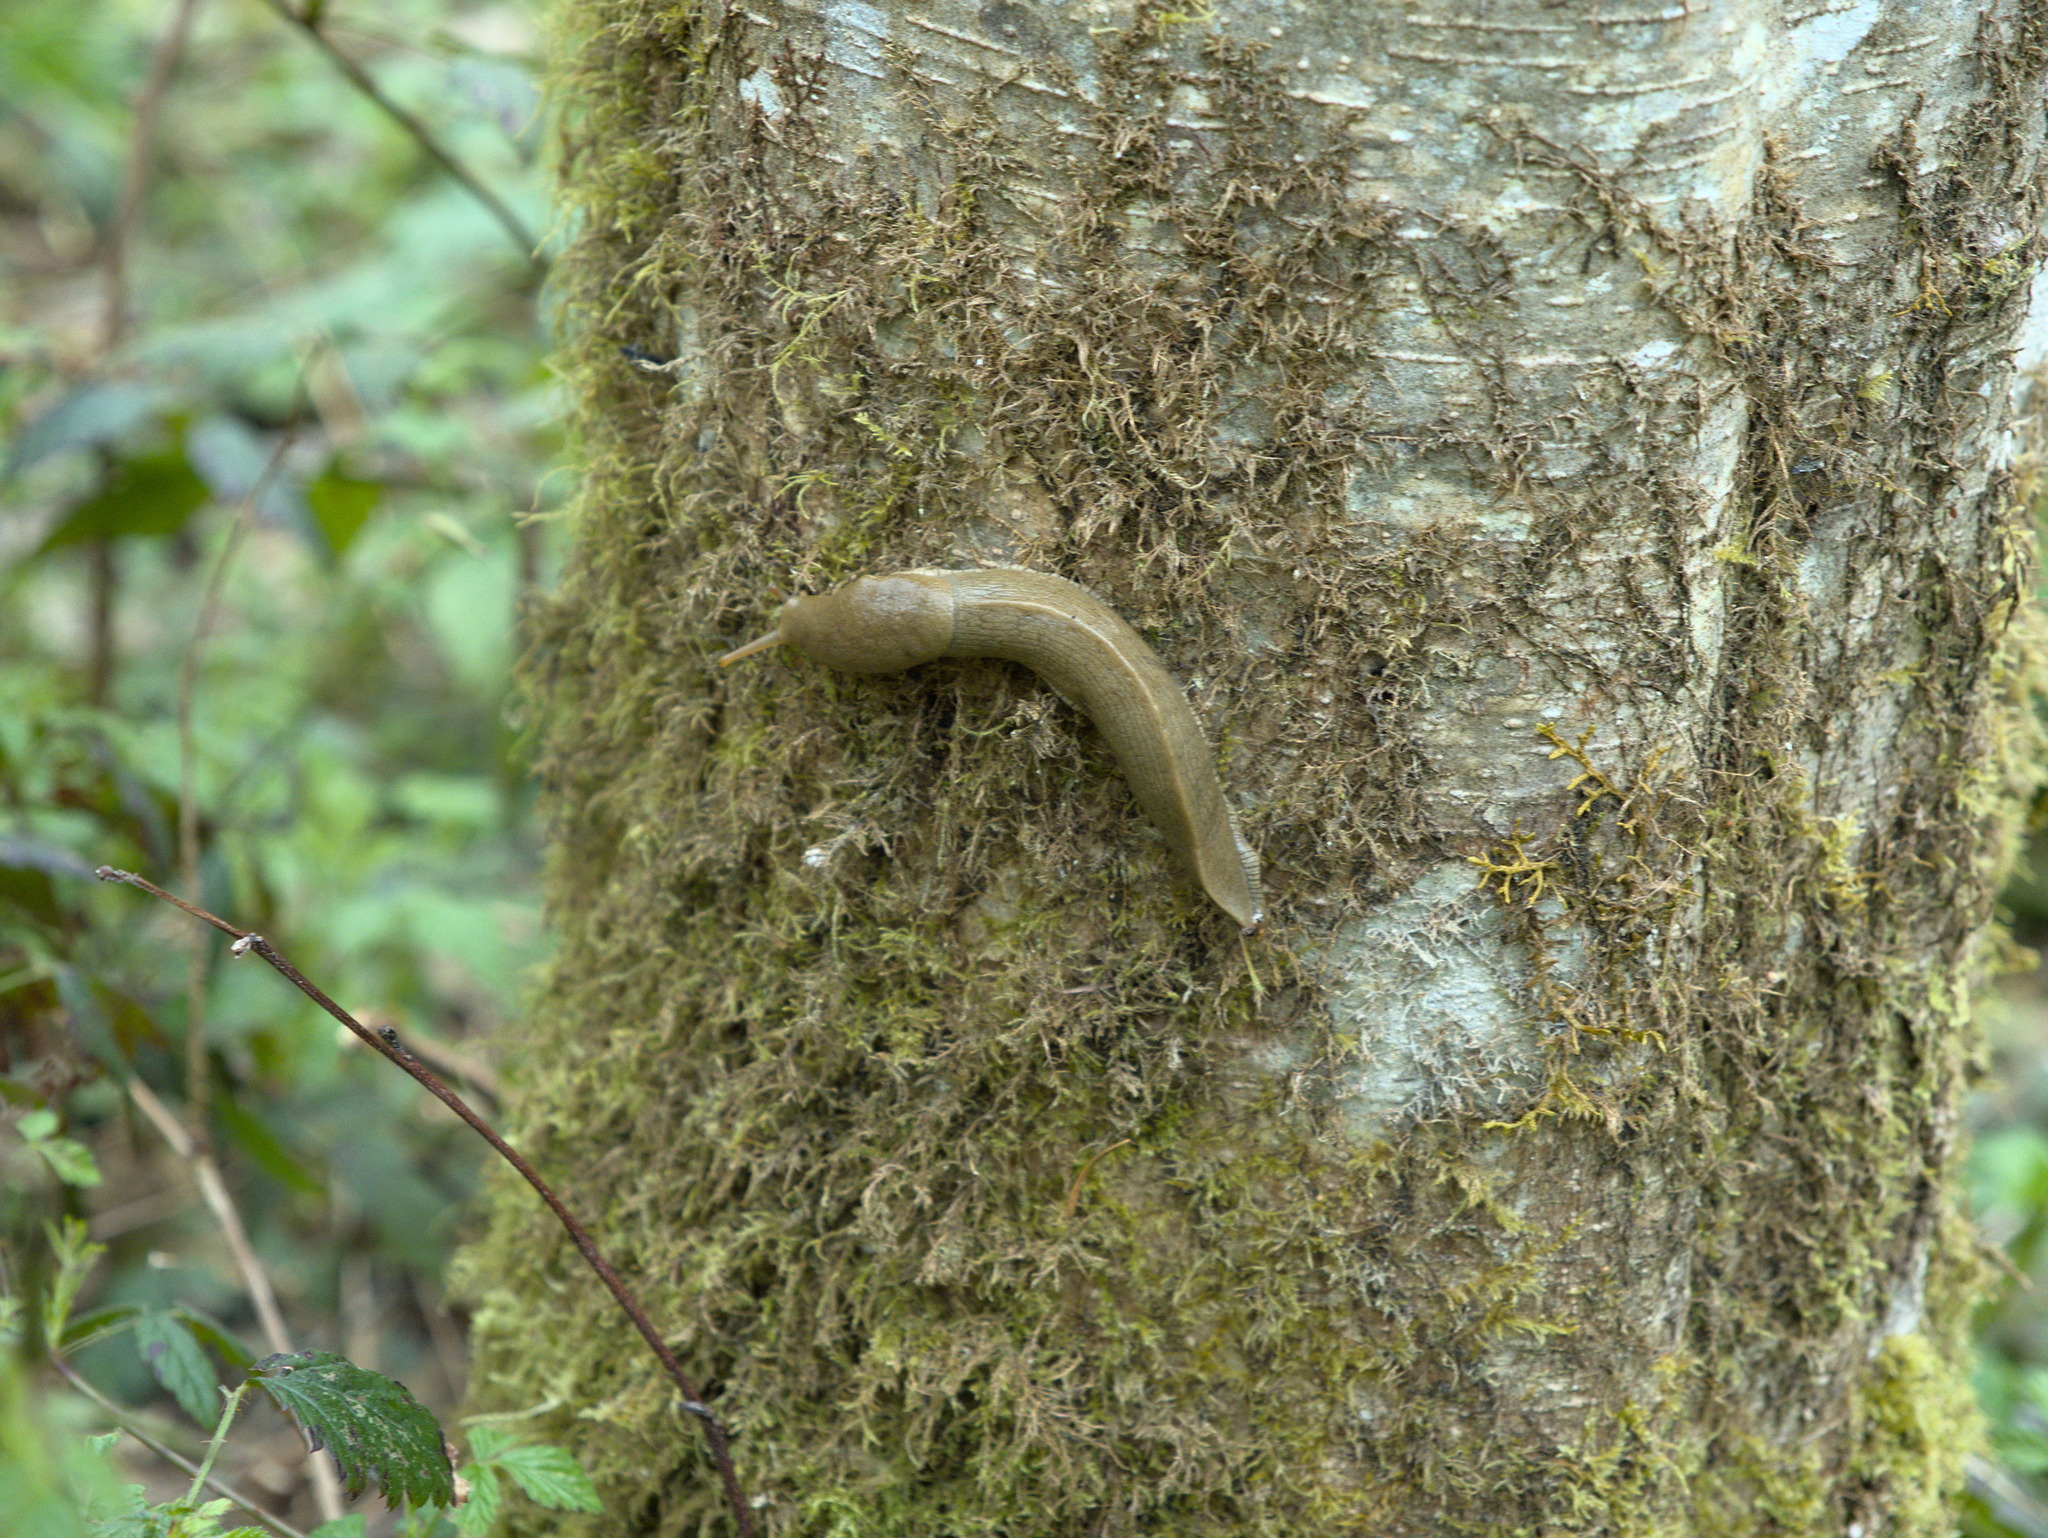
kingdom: Animalia
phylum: Mollusca
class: Gastropoda
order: Stylommatophora
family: Ariolimacidae
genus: Ariolimax
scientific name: Ariolimax columbianus
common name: Pacific banana slug
